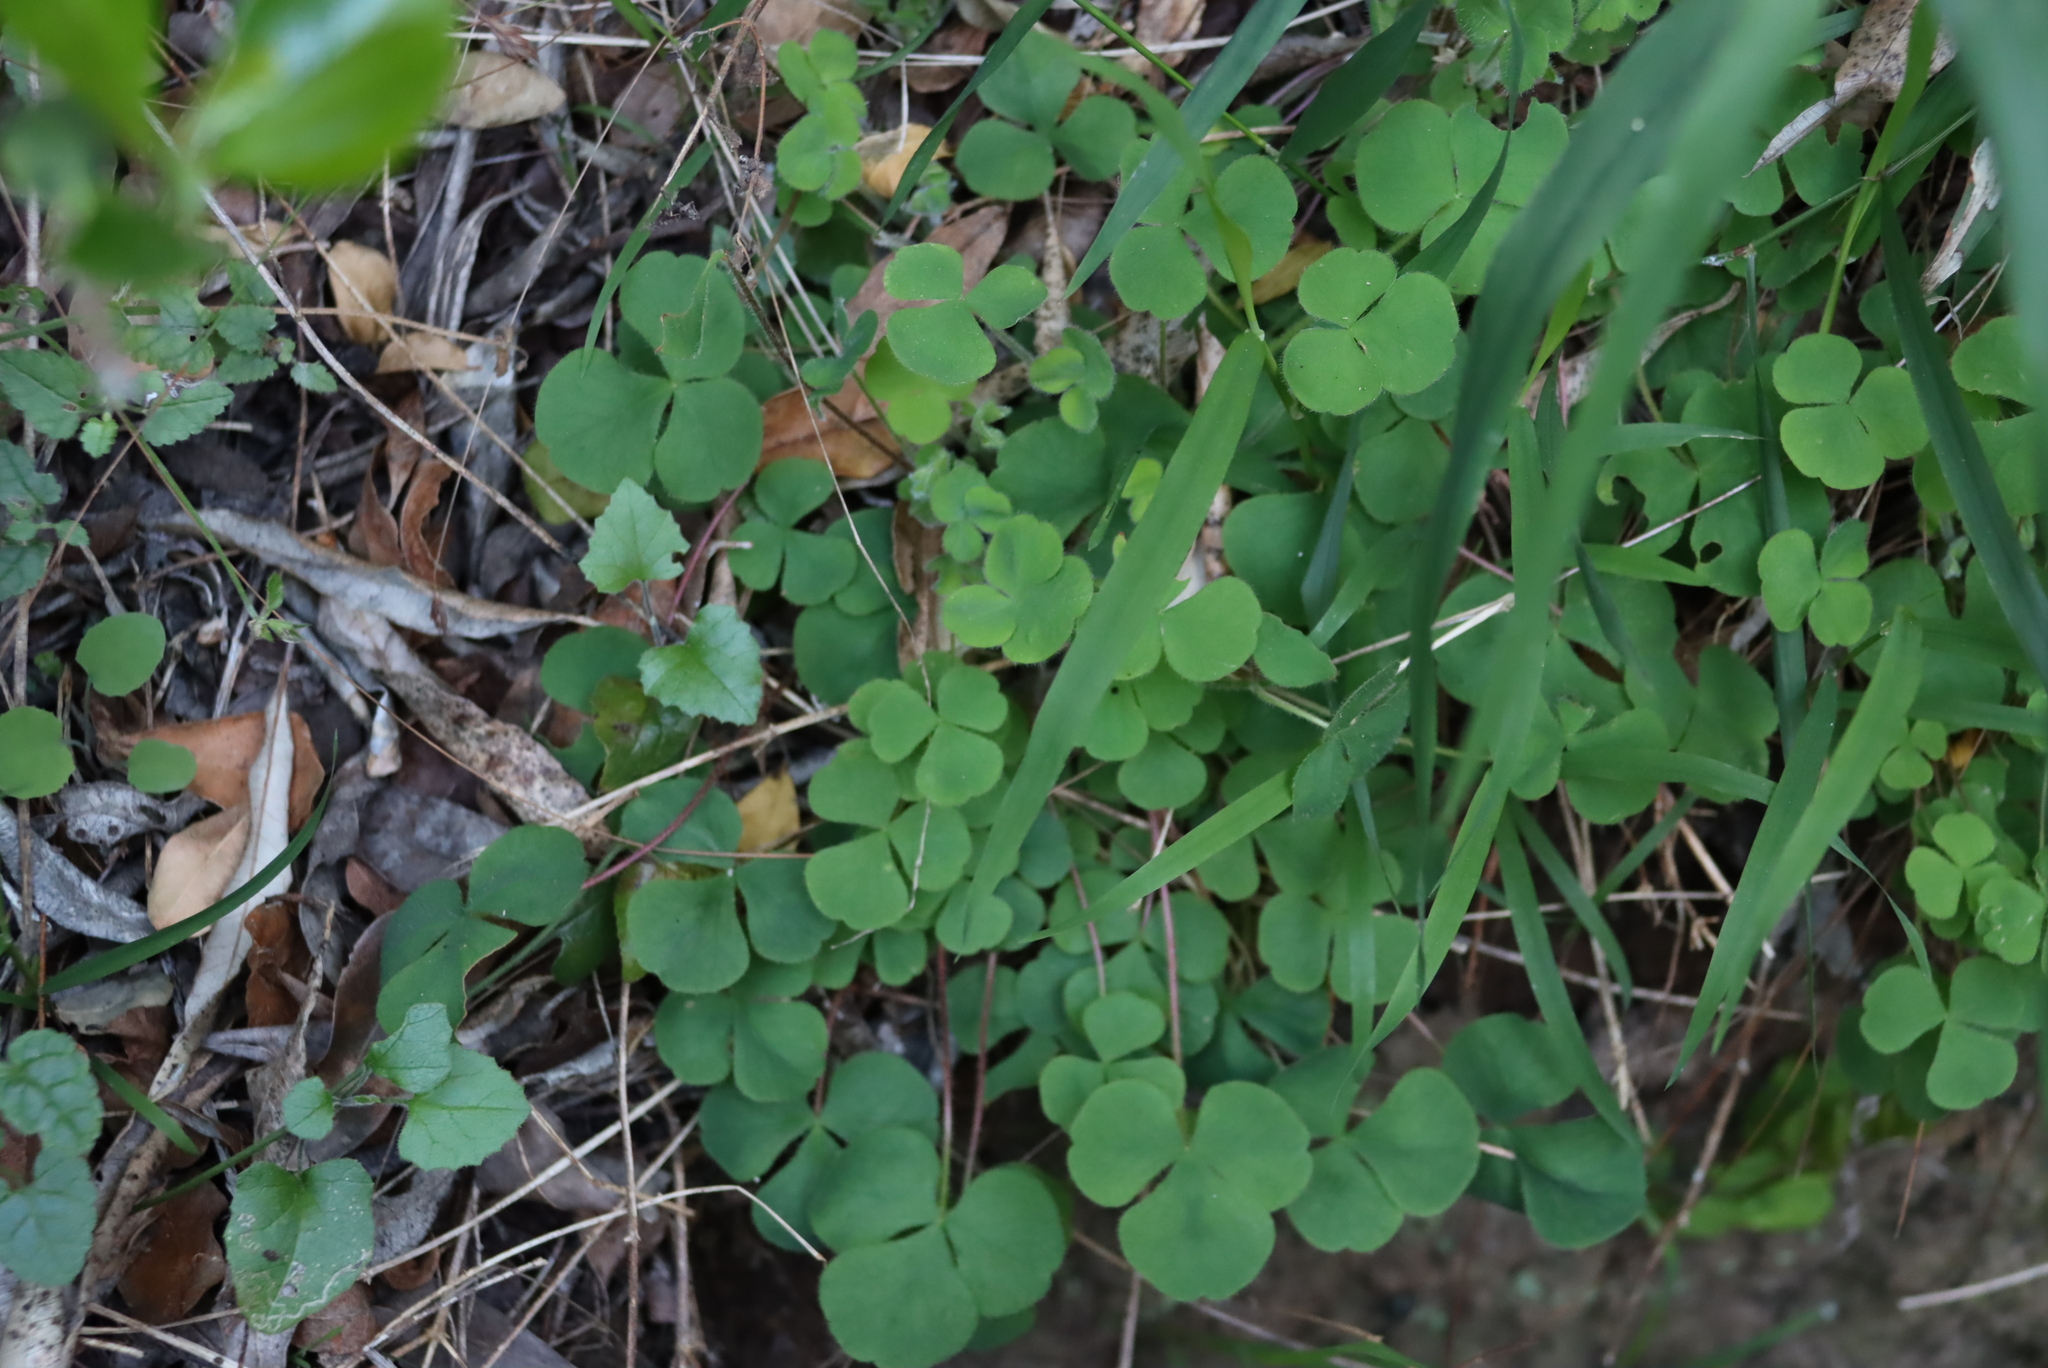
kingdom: Plantae
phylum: Tracheophyta
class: Magnoliopsida
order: Oxalidales
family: Oxalidaceae
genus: Oxalis
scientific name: Oxalis imbricata
